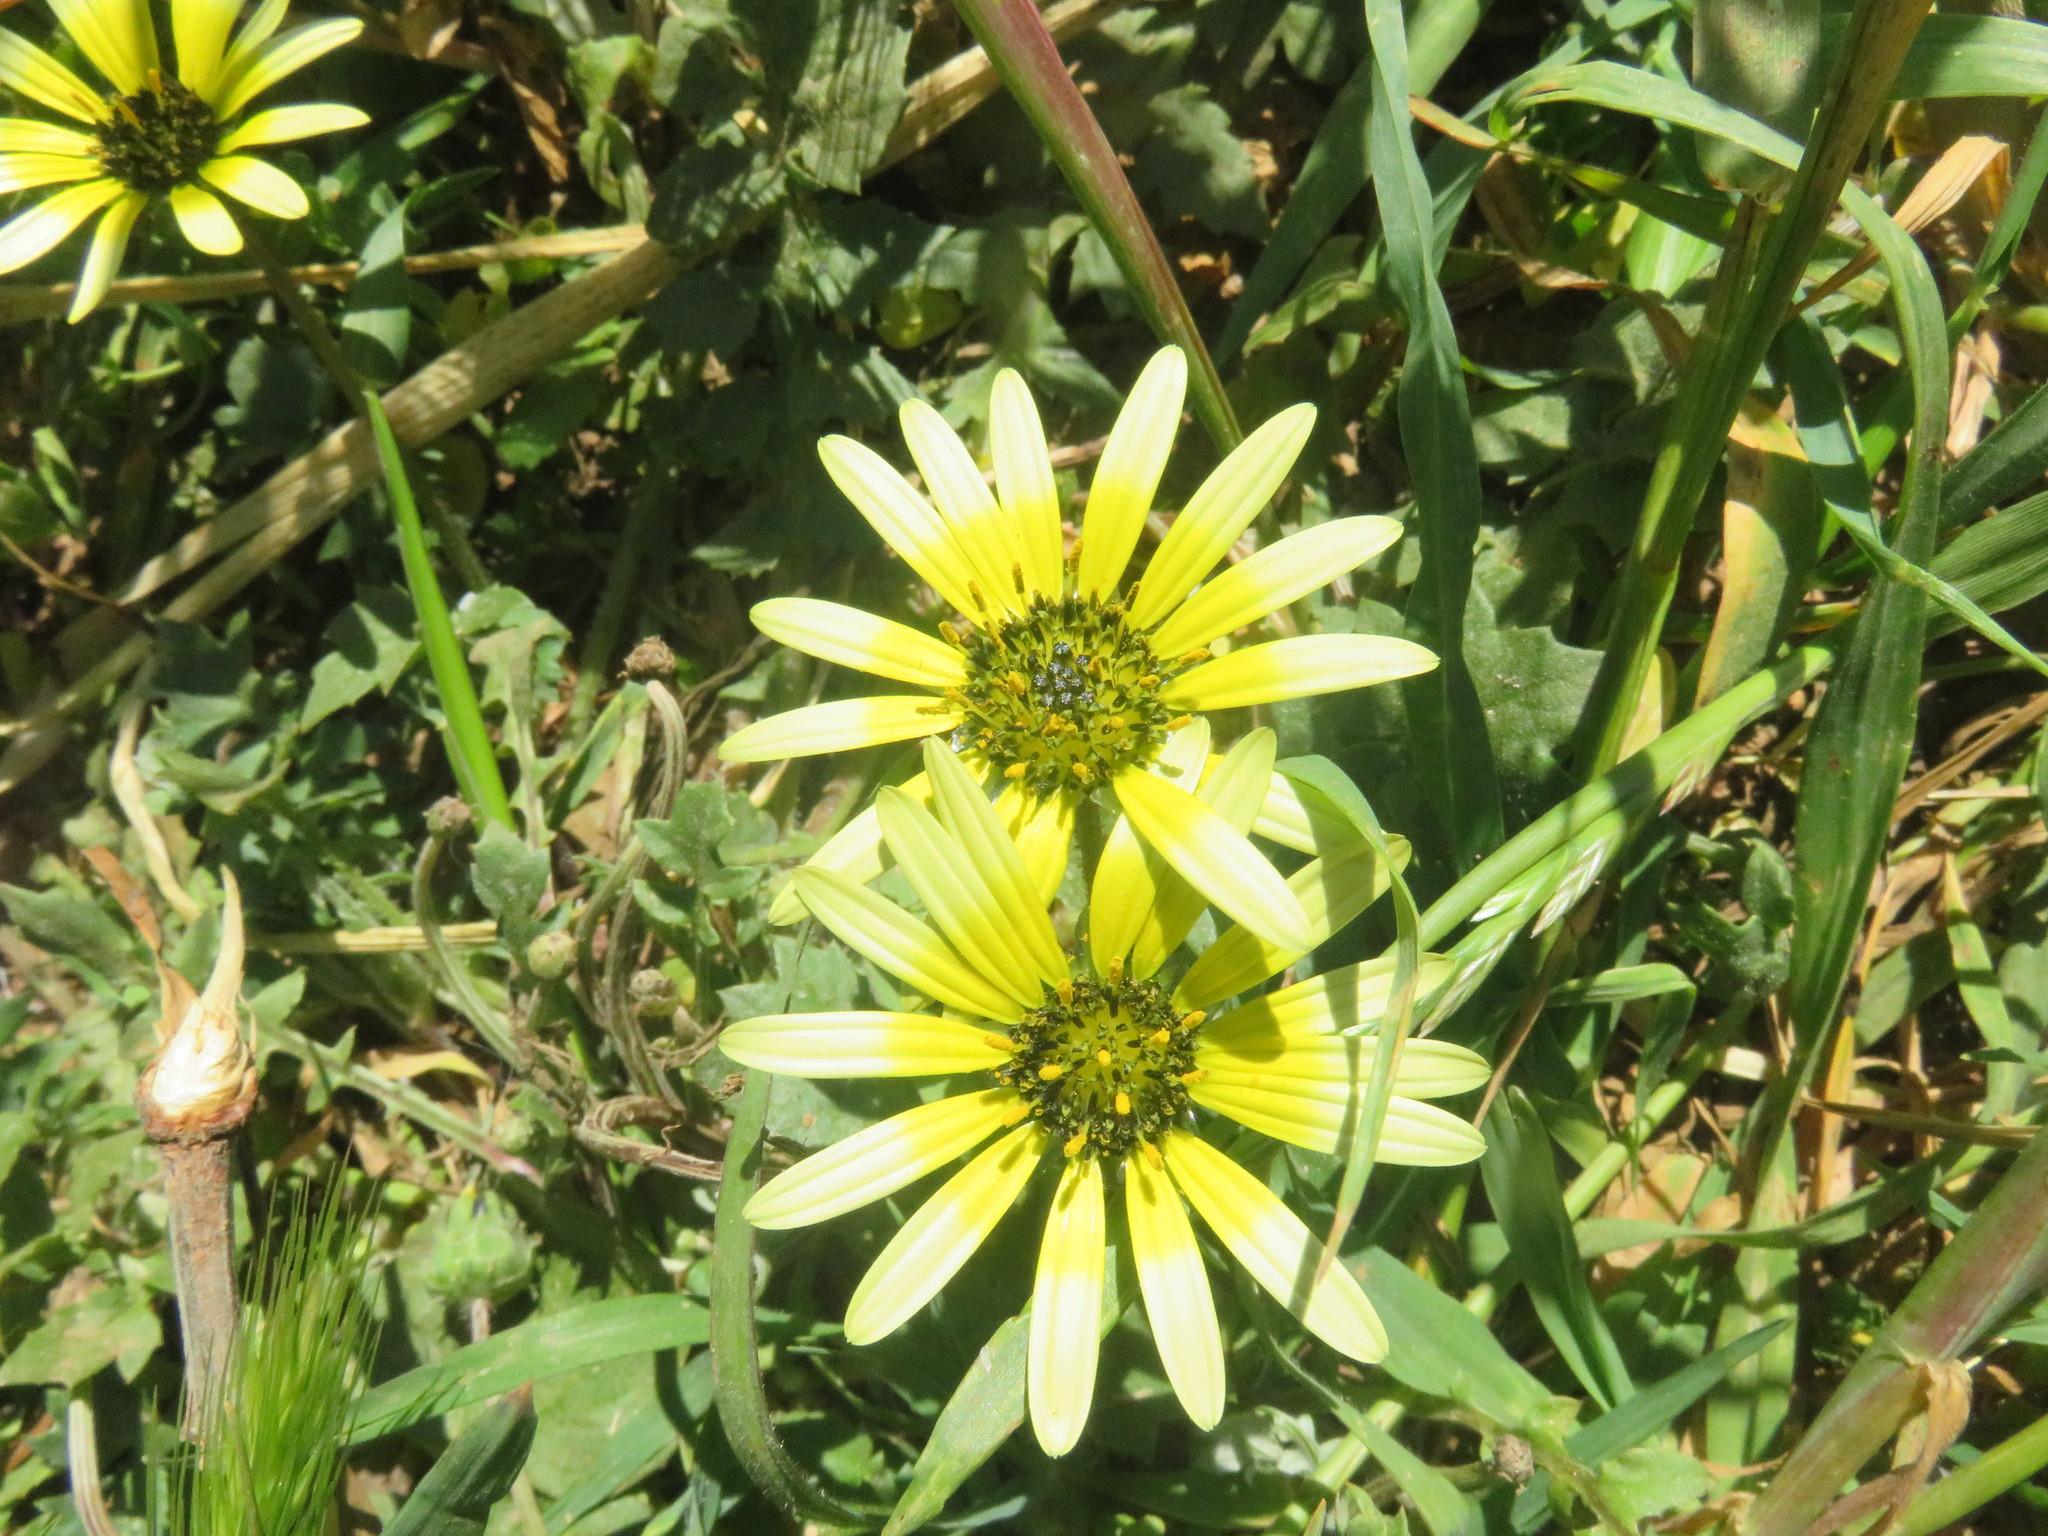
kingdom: Plantae
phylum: Tracheophyta
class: Magnoliopsida
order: Asterales
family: Asteraceae
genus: Arctotheca
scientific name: Arctotheca calendula
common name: Capeweed
